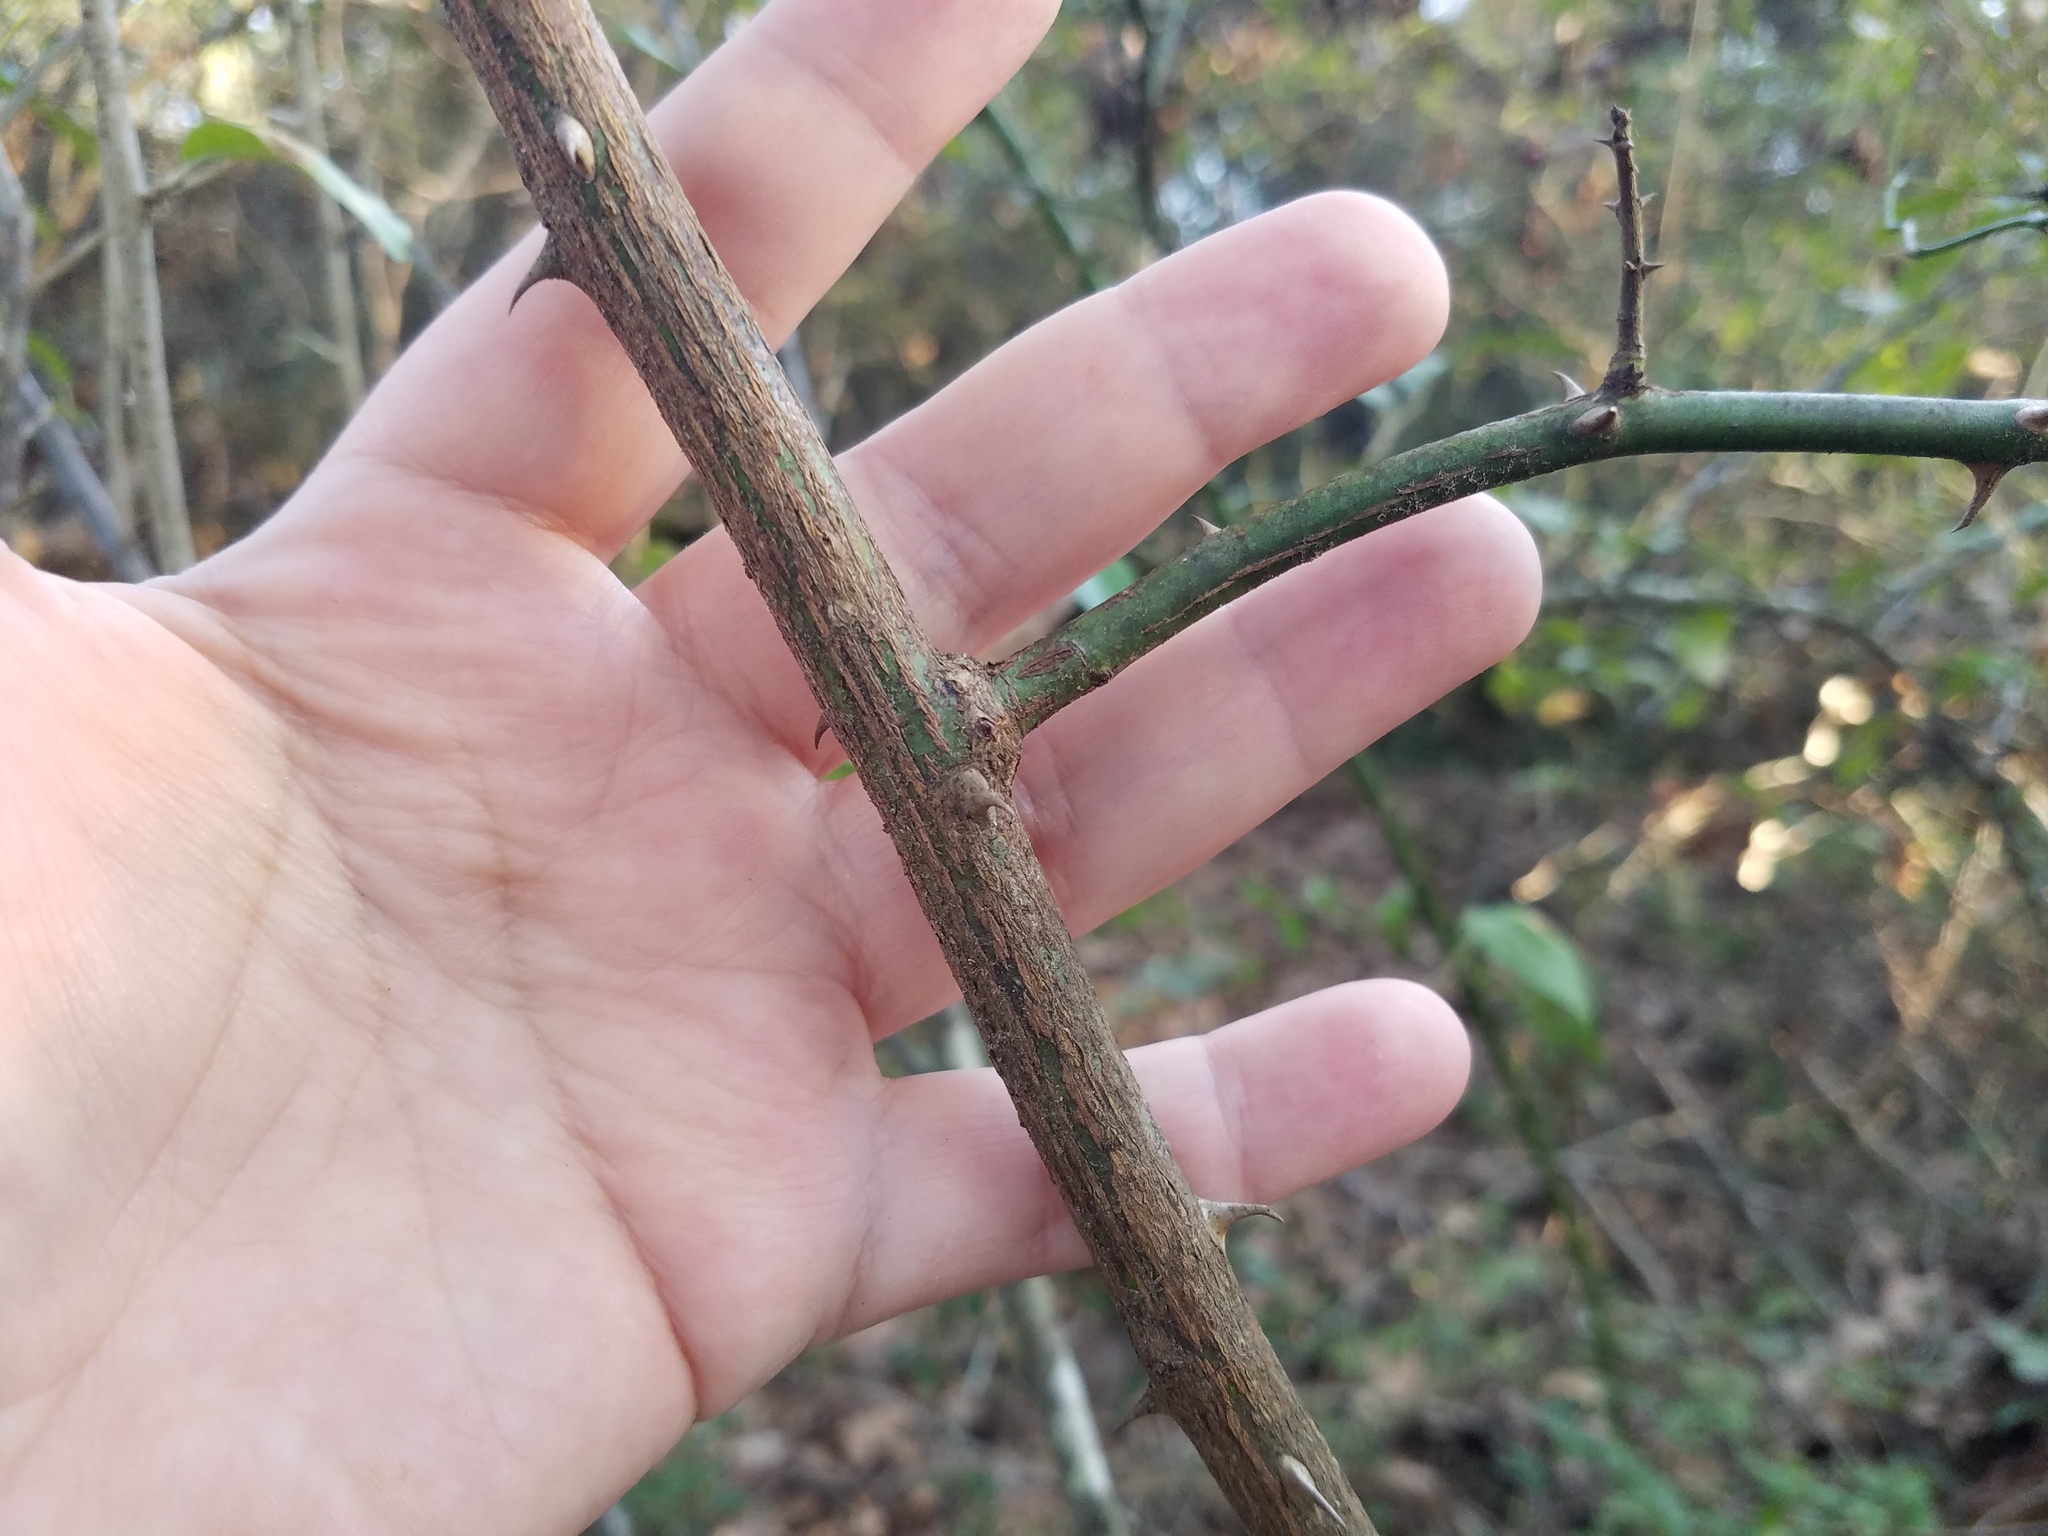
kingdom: Plantae
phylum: Tracheophyta
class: Magnoliopsida
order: Rosales
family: Rosaceae
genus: Rosa
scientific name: Rosa multiflora
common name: Multiflora rose
